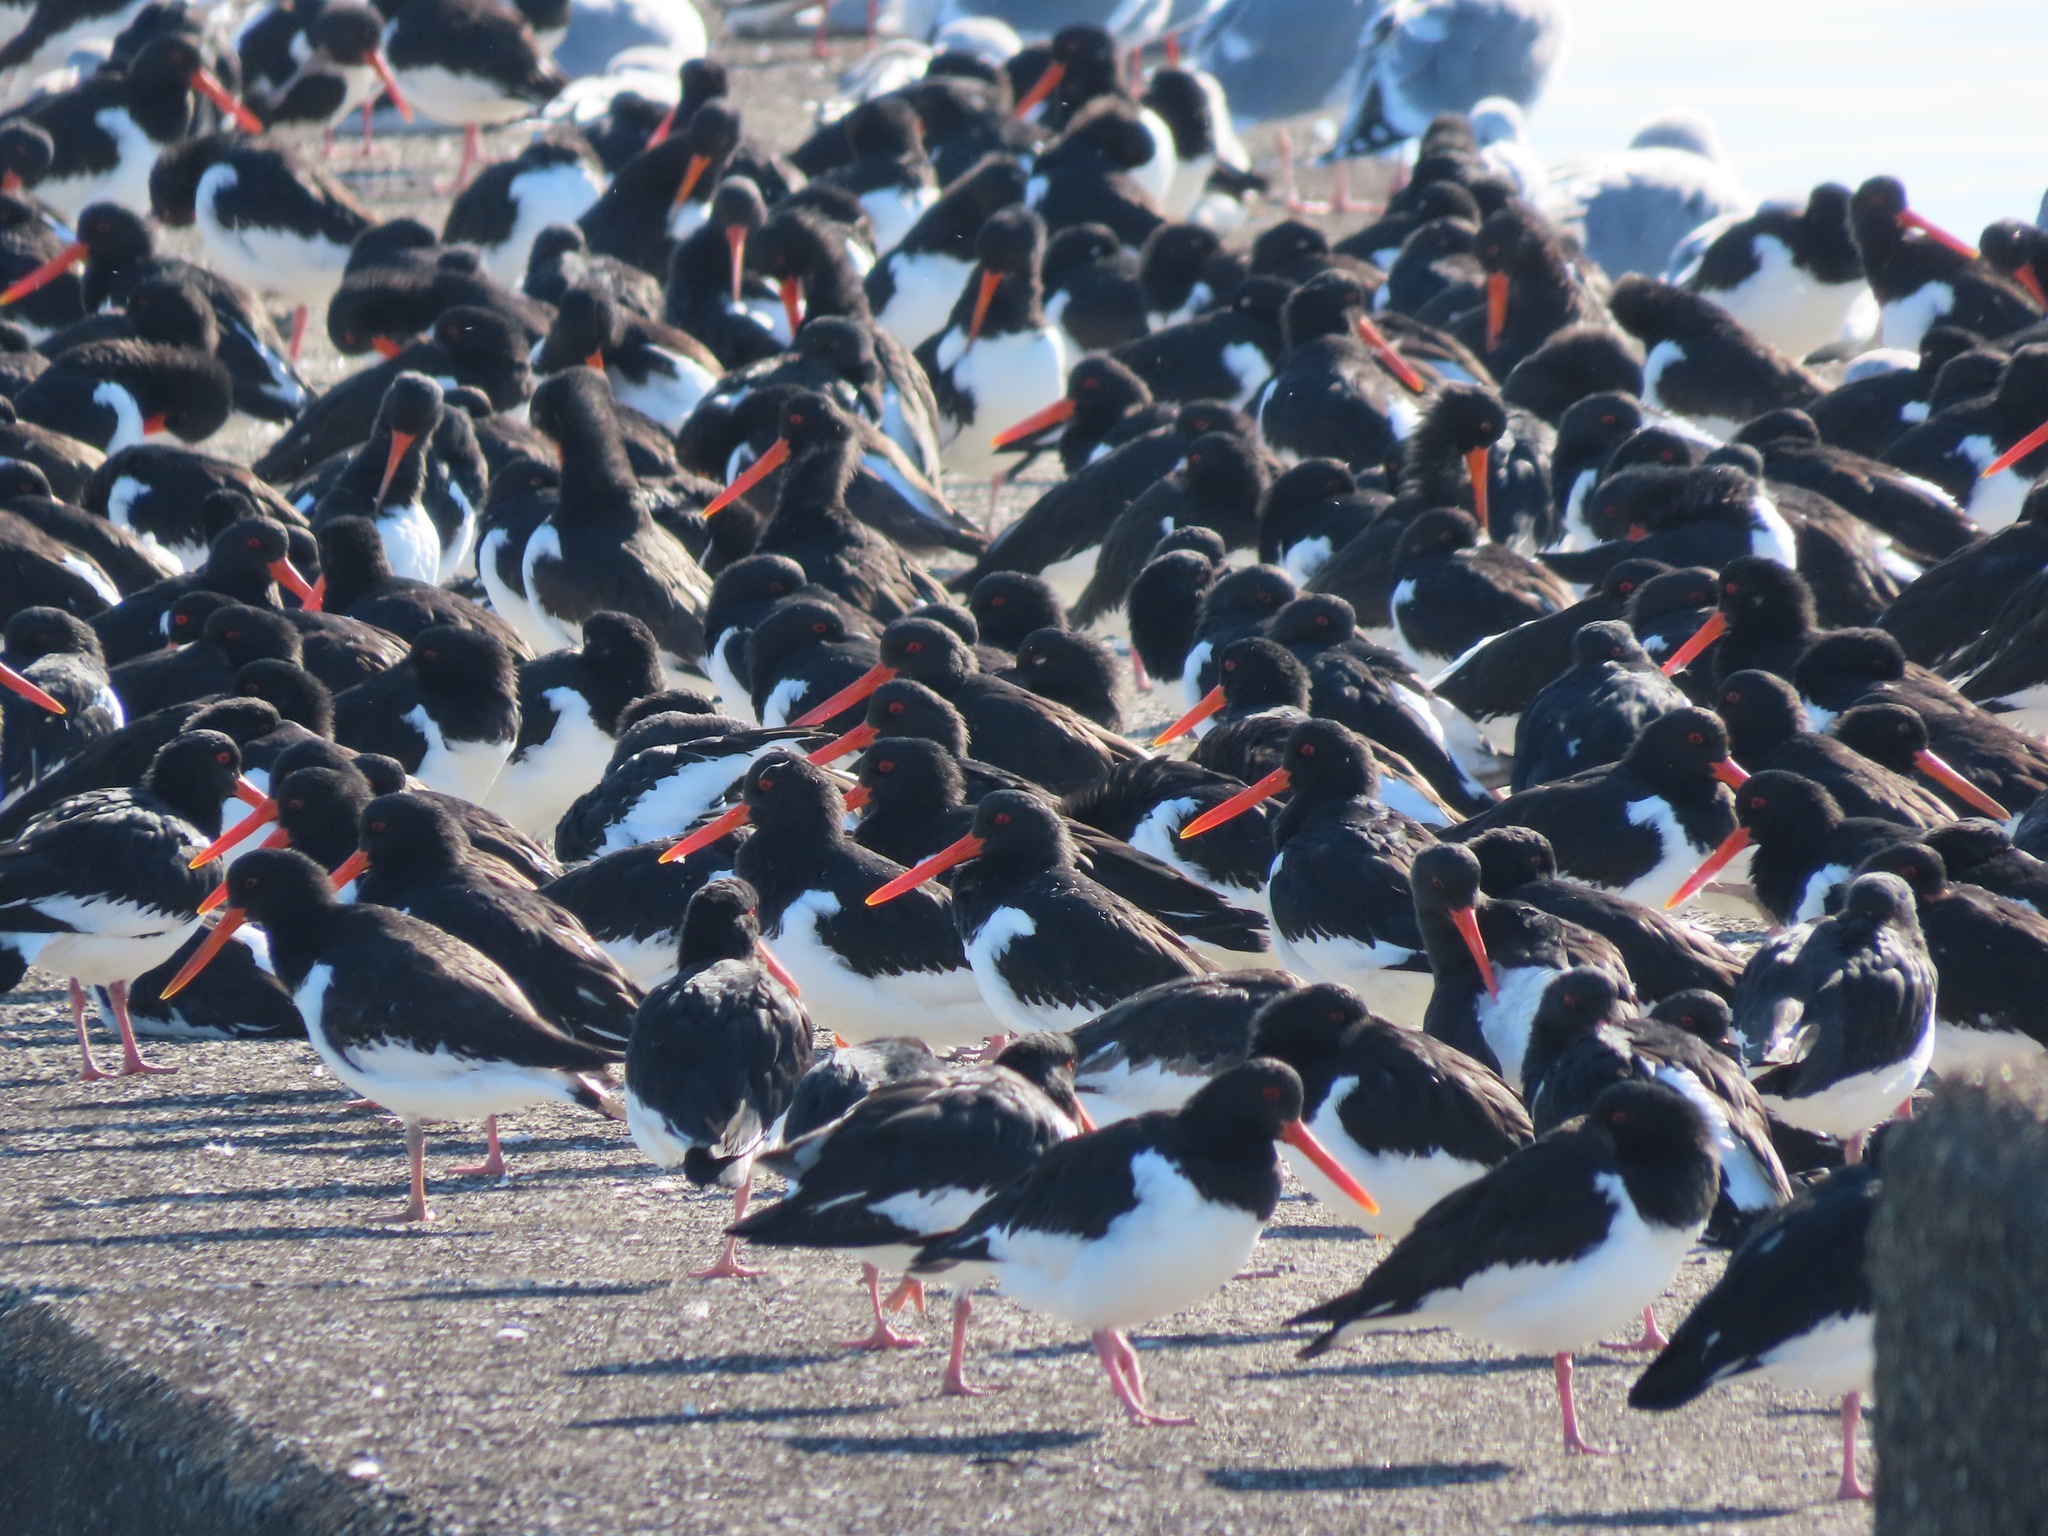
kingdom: Animalia
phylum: Chordata
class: Aves
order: Charadriiformes
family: Haematopodidae
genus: Haematopus
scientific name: Haematopus ostralegus
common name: Eurasian oystercatcher
